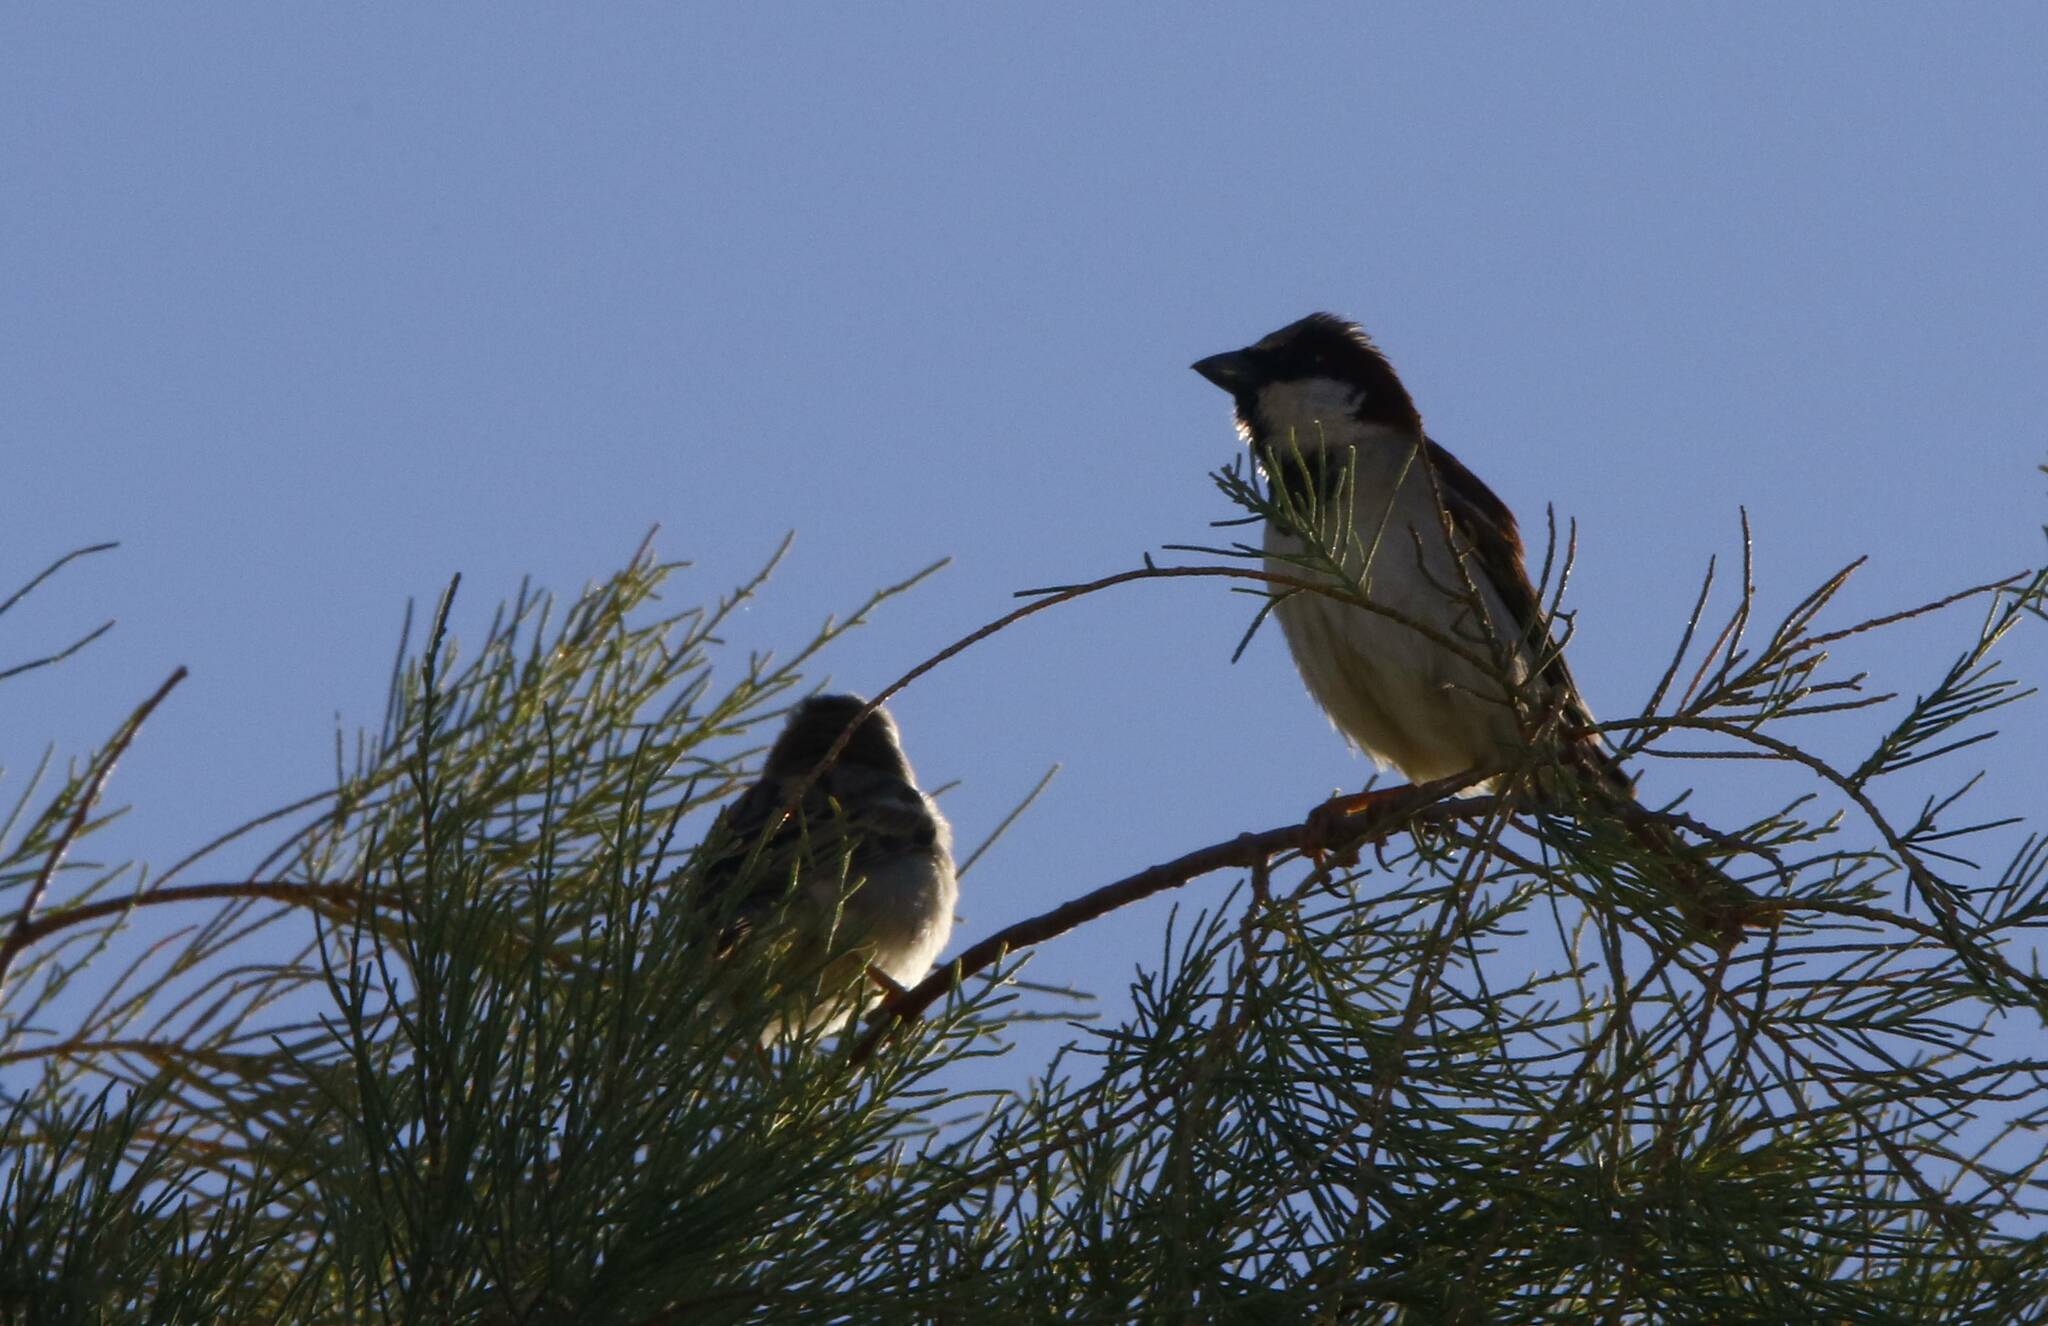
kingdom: Animalia
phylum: Chordata
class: Aves
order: Passeriformes
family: Passeridae
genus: Passer
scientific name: Passer domesticus
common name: House sparrow
